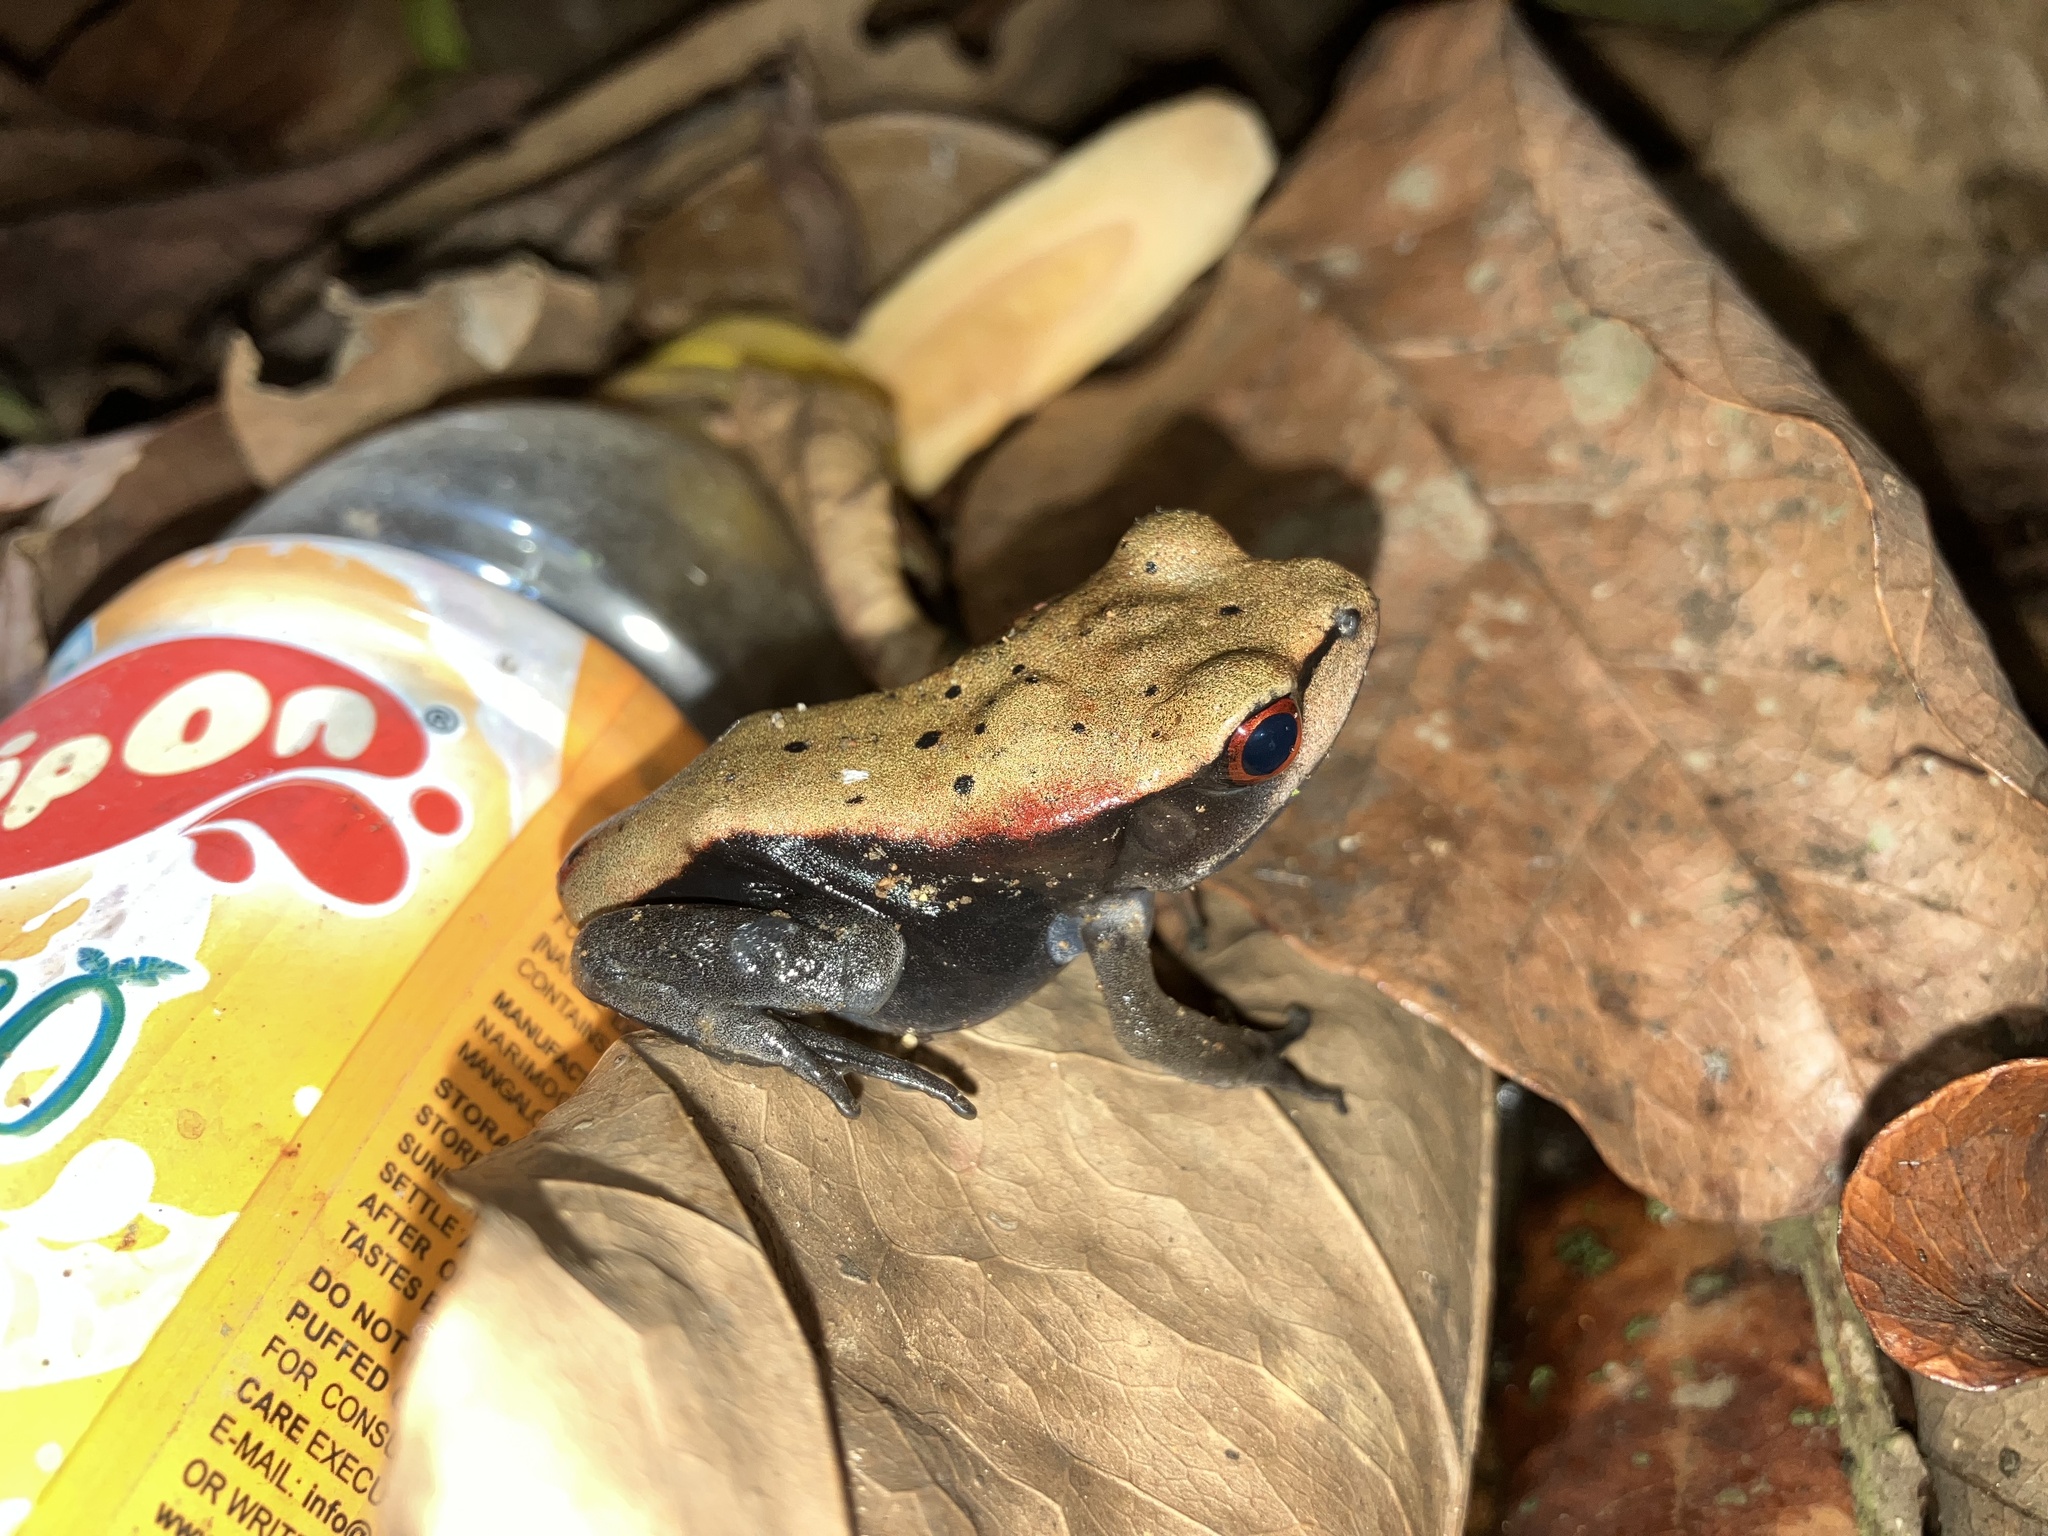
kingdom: Animalia
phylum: Chordata
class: Amphibia
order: Anura
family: Ranidae
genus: Clinotarsus
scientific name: Clinotarsus curtipes
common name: Bicoloured frog
